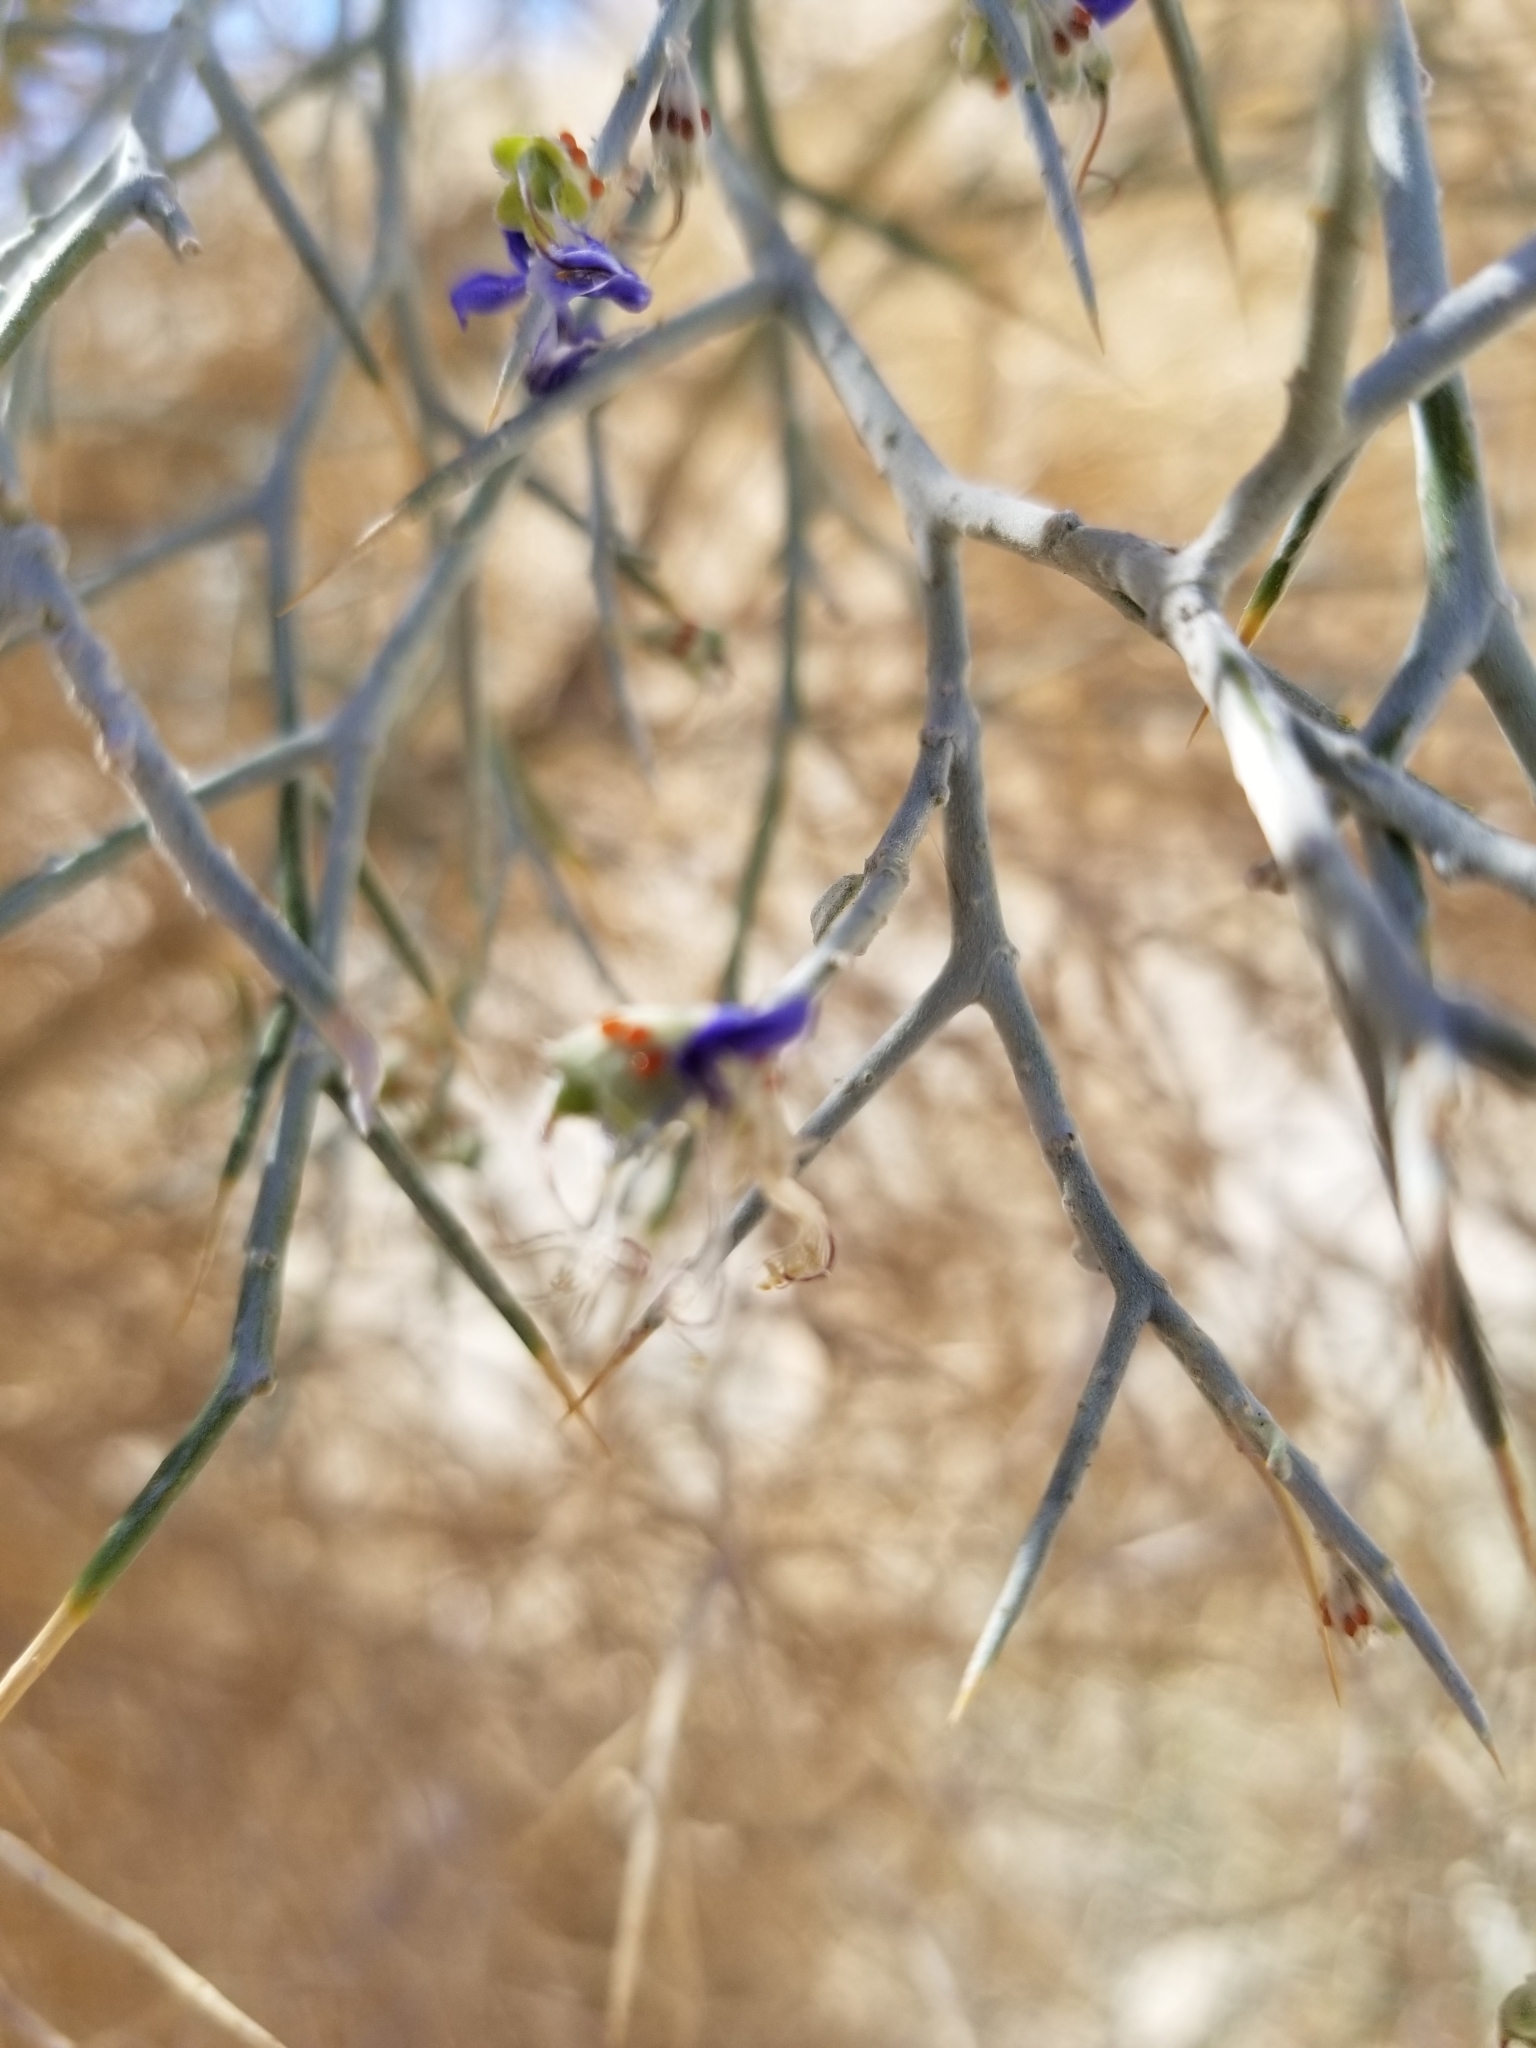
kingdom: Plantae
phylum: Tracheophyta
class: Magnoliopsida
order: Fabales
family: Fabaceae
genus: Psorothamnus
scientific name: Psorothamnus spinosus
